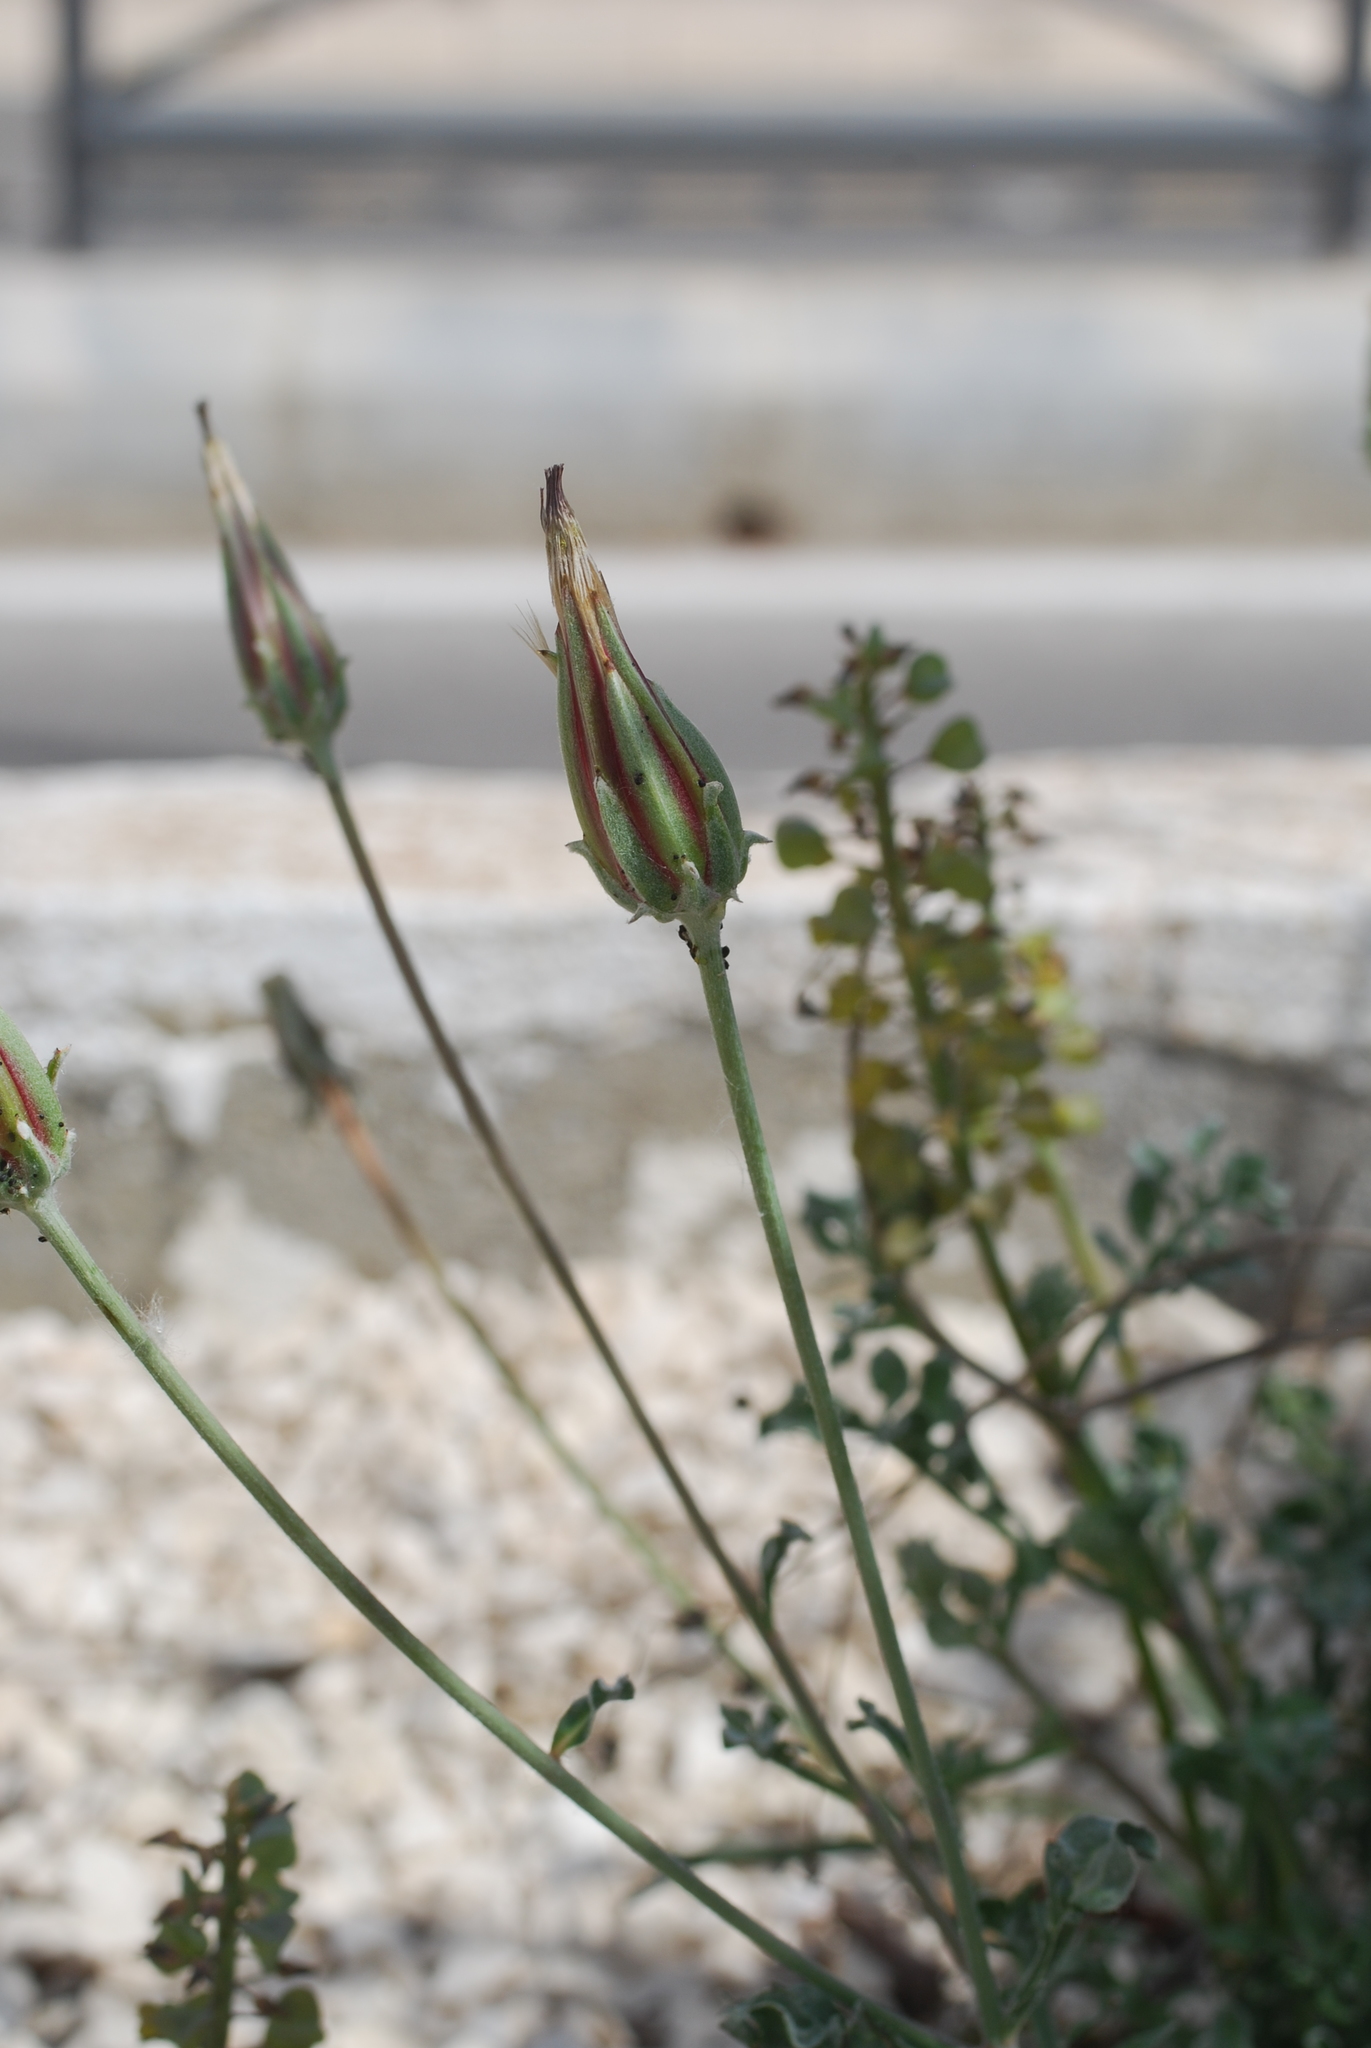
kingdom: Plantae
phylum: Tracheophyta
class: Magnoliopsida
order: Asterales
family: Asteraceae
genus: Scorzonera
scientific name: Scorzonera laciniata
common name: Cutleaf vipergrass
